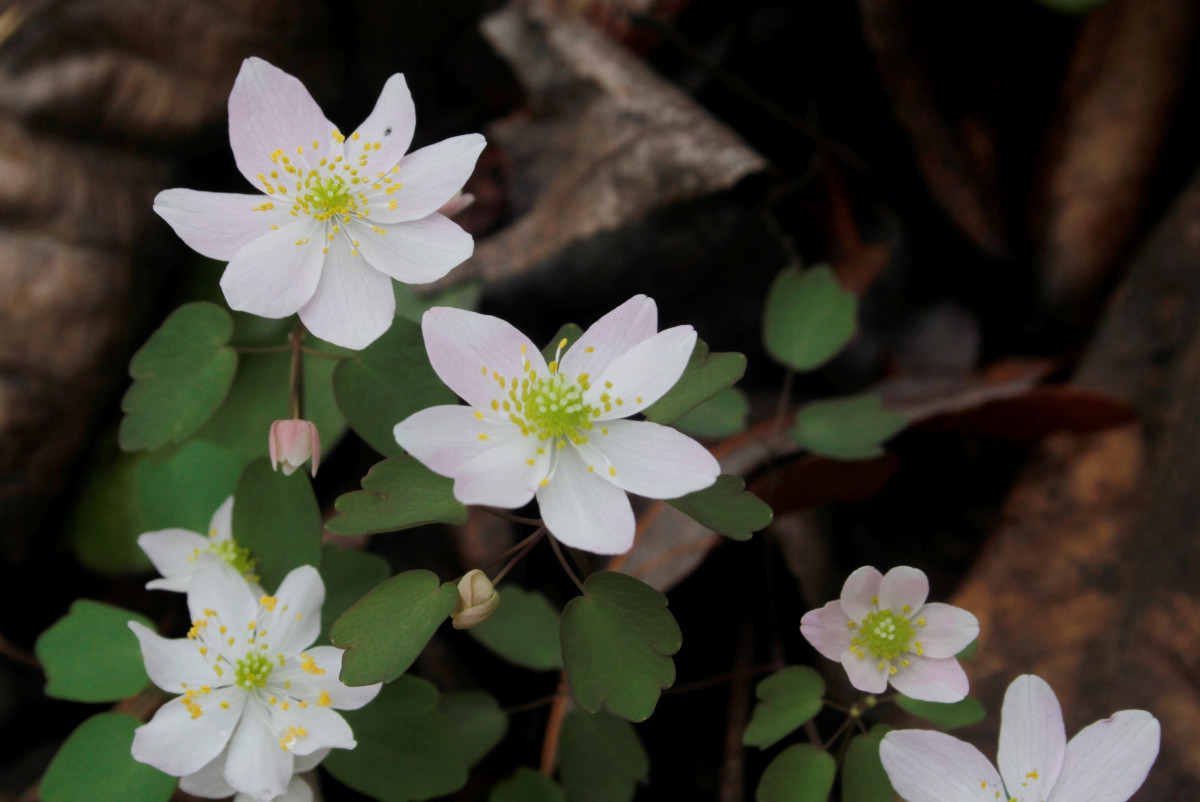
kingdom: Plantae
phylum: Tracheophyta
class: Magnoliopsida
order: Ranunculales
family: Ranunculaceae
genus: Thalictrum
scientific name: Thalictrum thalictroides
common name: Rue-anemone
